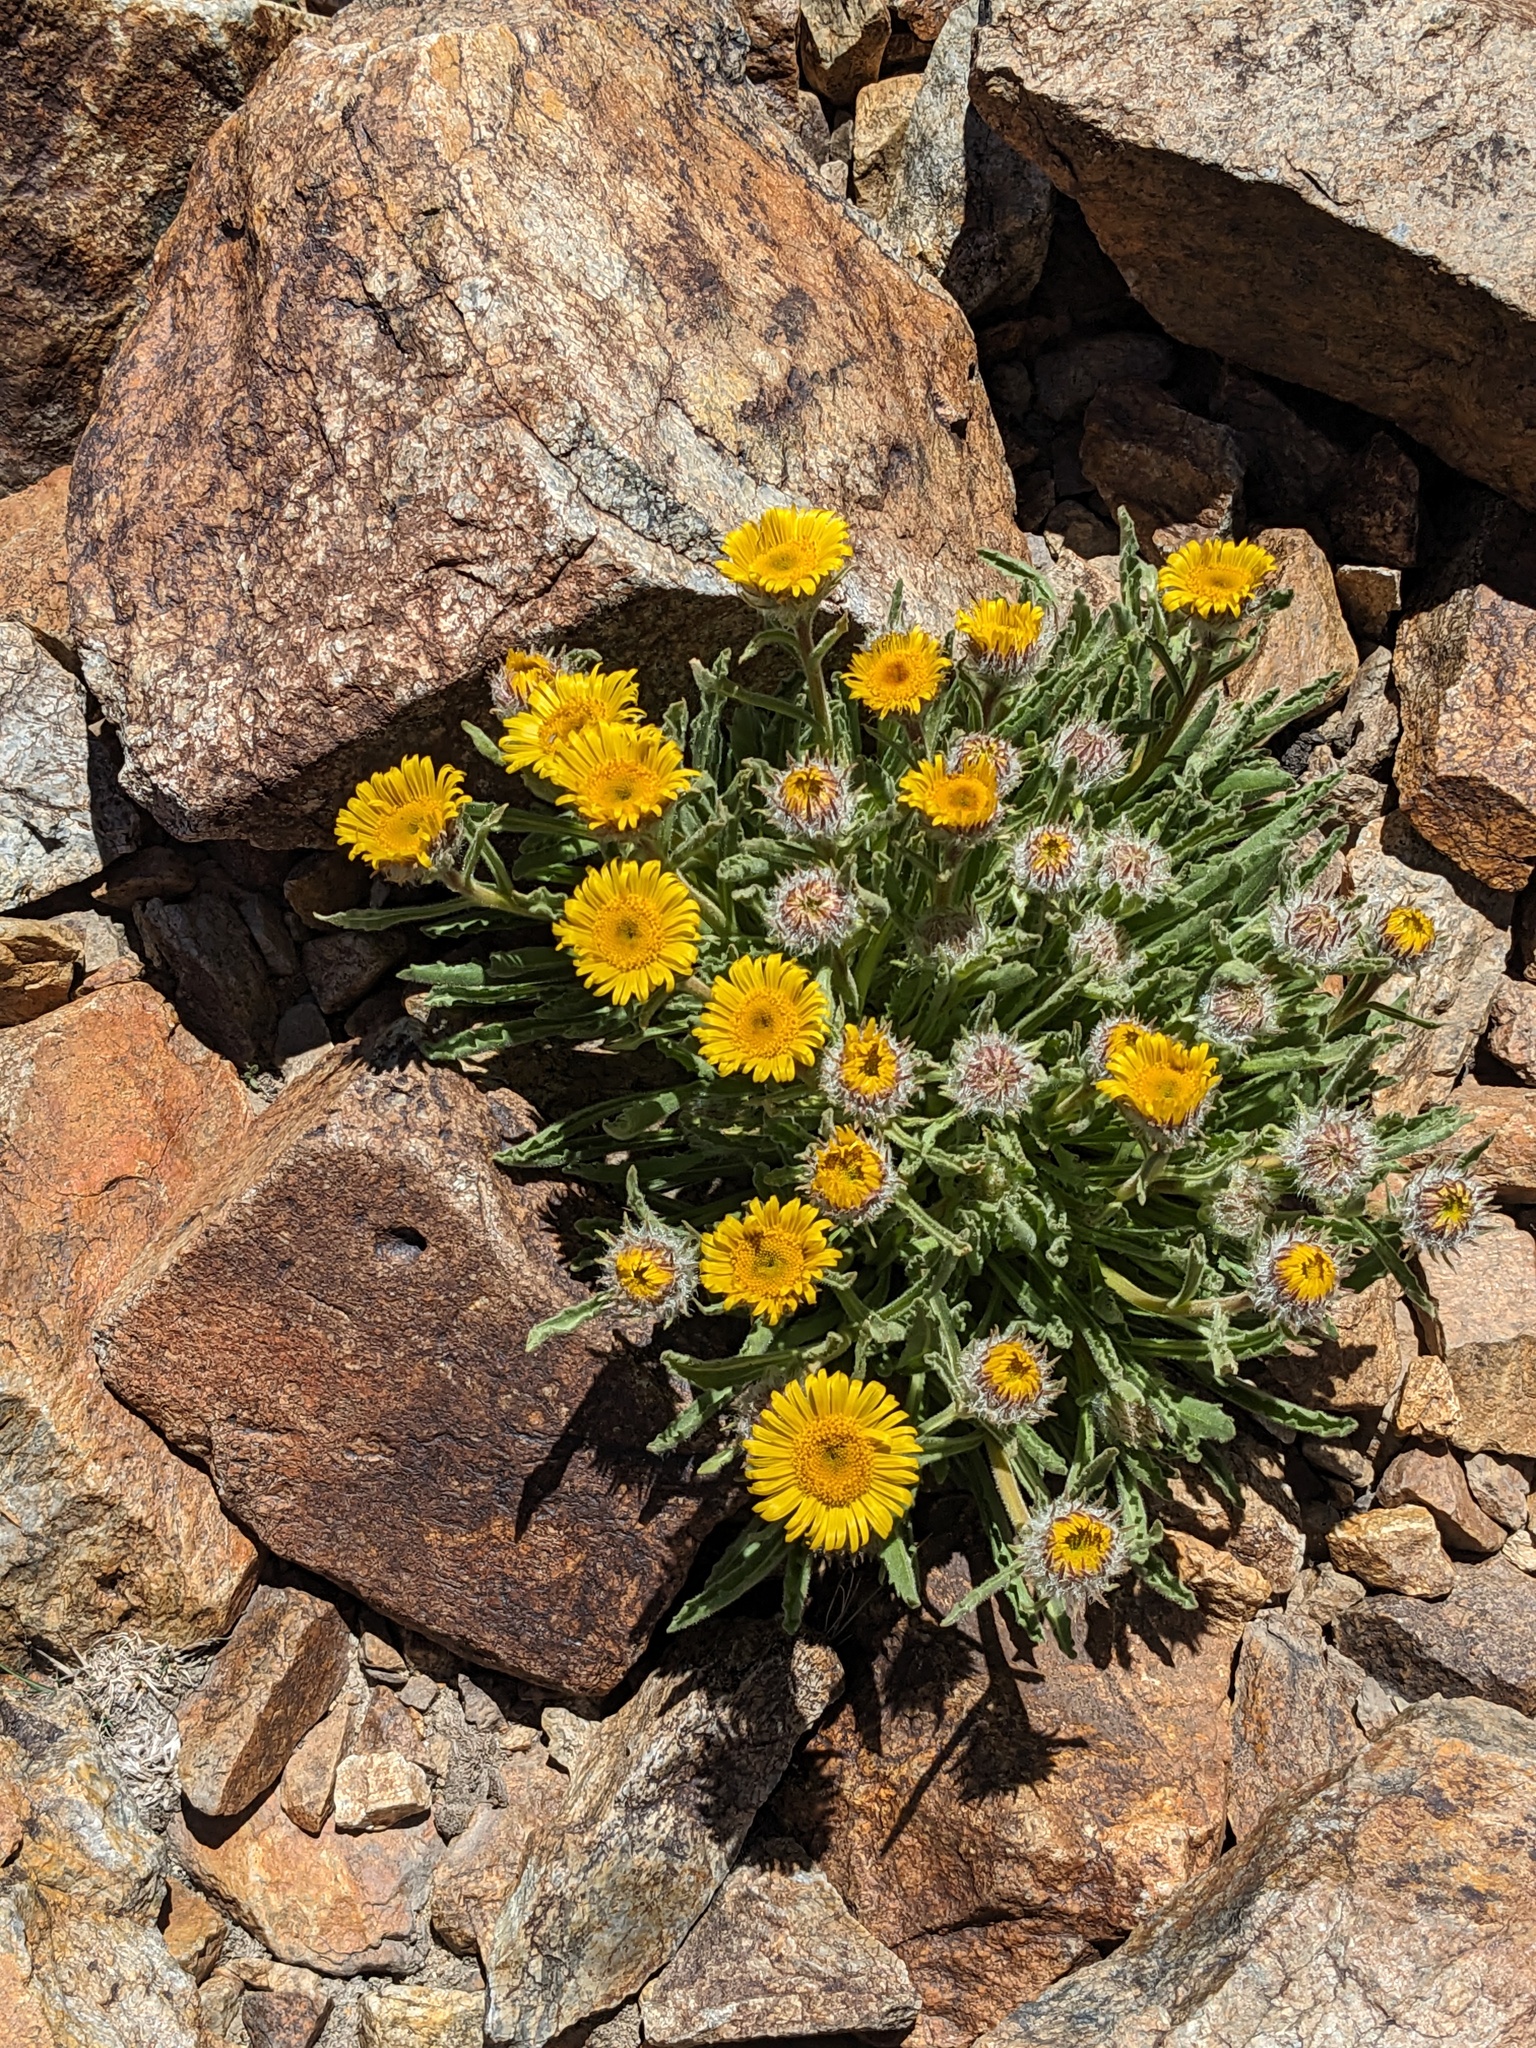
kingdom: Plantae
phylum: Tracheophyta
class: Magnoliopsida
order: Asterales
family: Asteraceae
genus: Hulsea
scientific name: Hulsea algida
